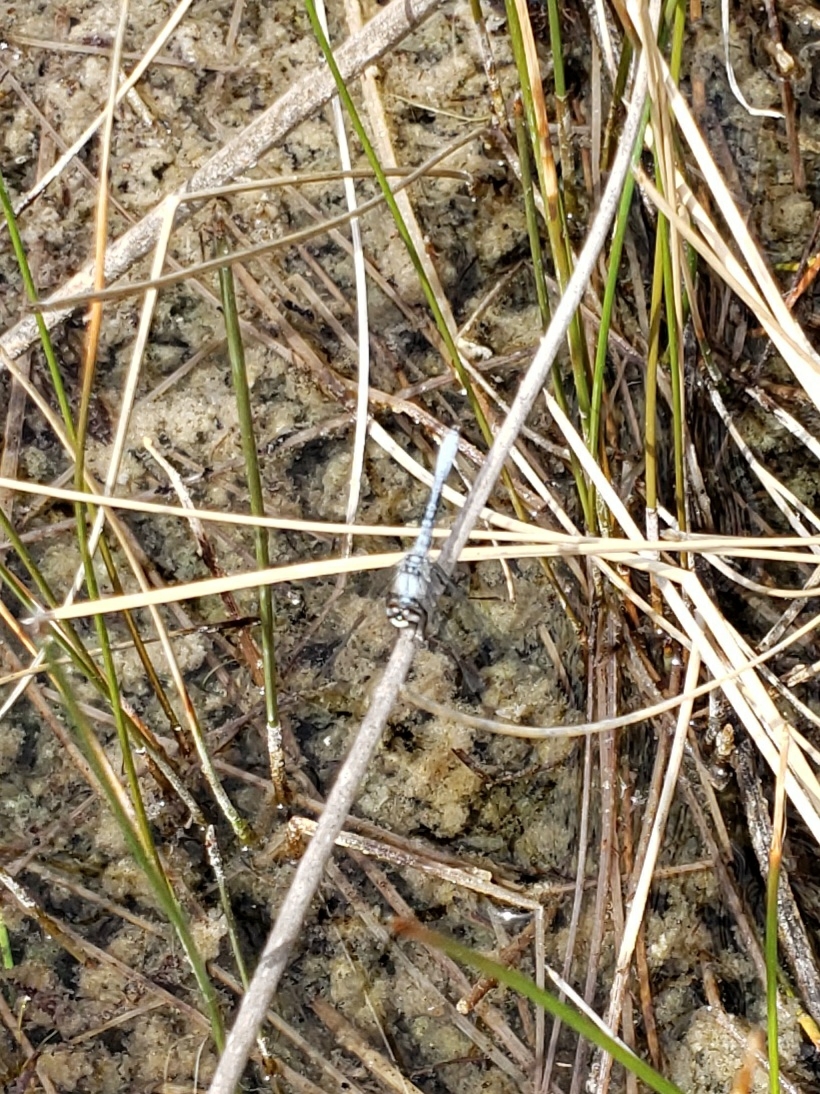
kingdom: Animalia
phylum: Arthropoda
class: Insecta
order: Odonata
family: Libellulidae
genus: Nannothemis
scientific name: Nannothemis bella
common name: Elfin skimmer
